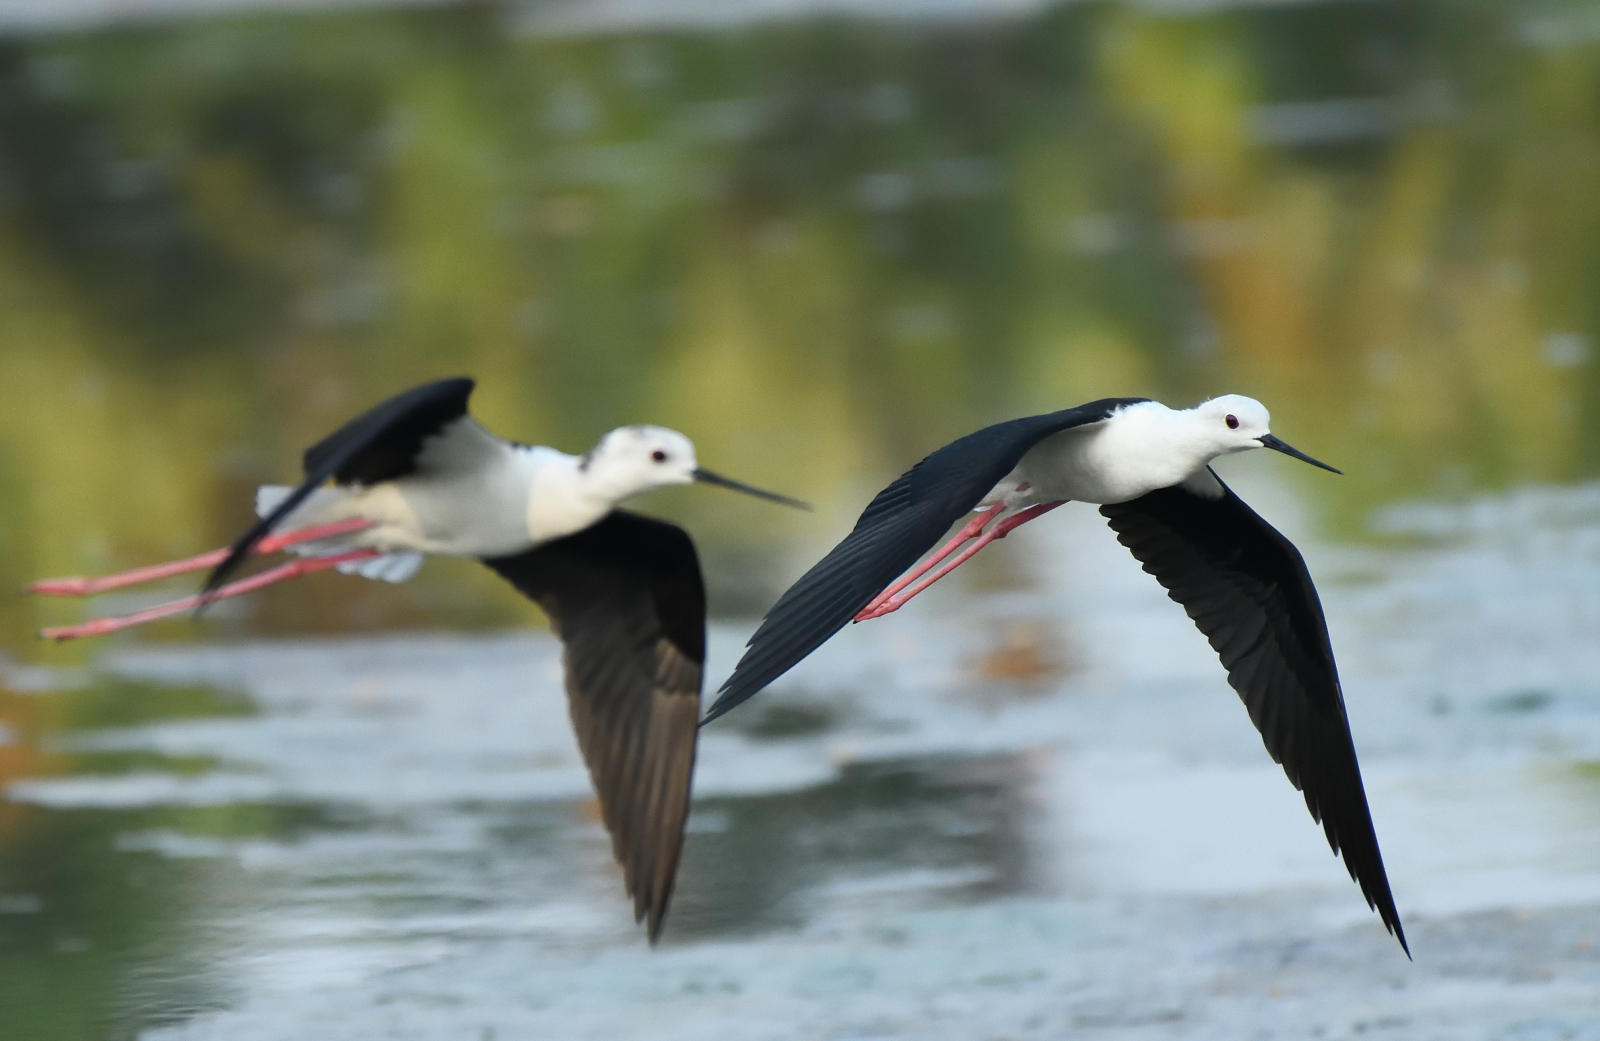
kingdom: Animalia
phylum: Chordata
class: Aves
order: Charadriiformes
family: Recurvirostridae
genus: Himantopus
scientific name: Himantopus himantopus
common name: Black-winged stilt
